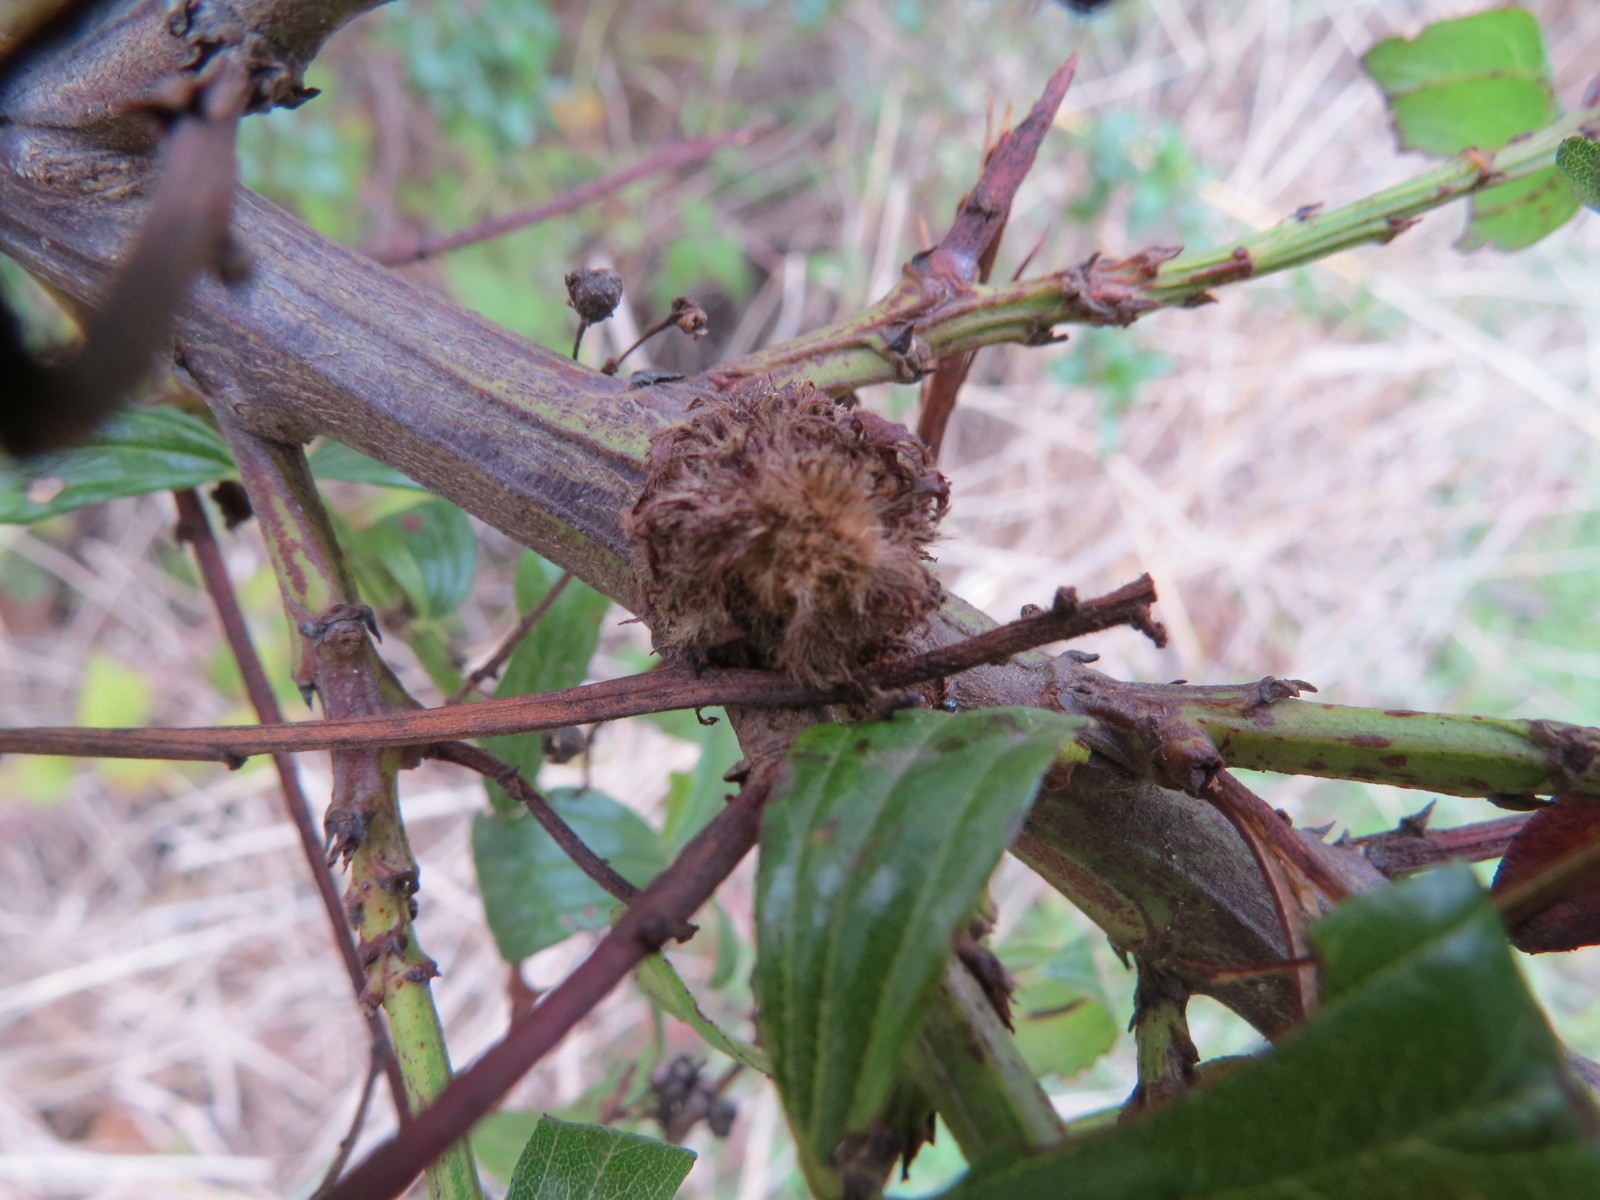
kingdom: Animalia
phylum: Arthropoda
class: Insecta
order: Diptera
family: Cecidomyiidae
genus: Asphondylia
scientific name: Asphondylia ceanothi
